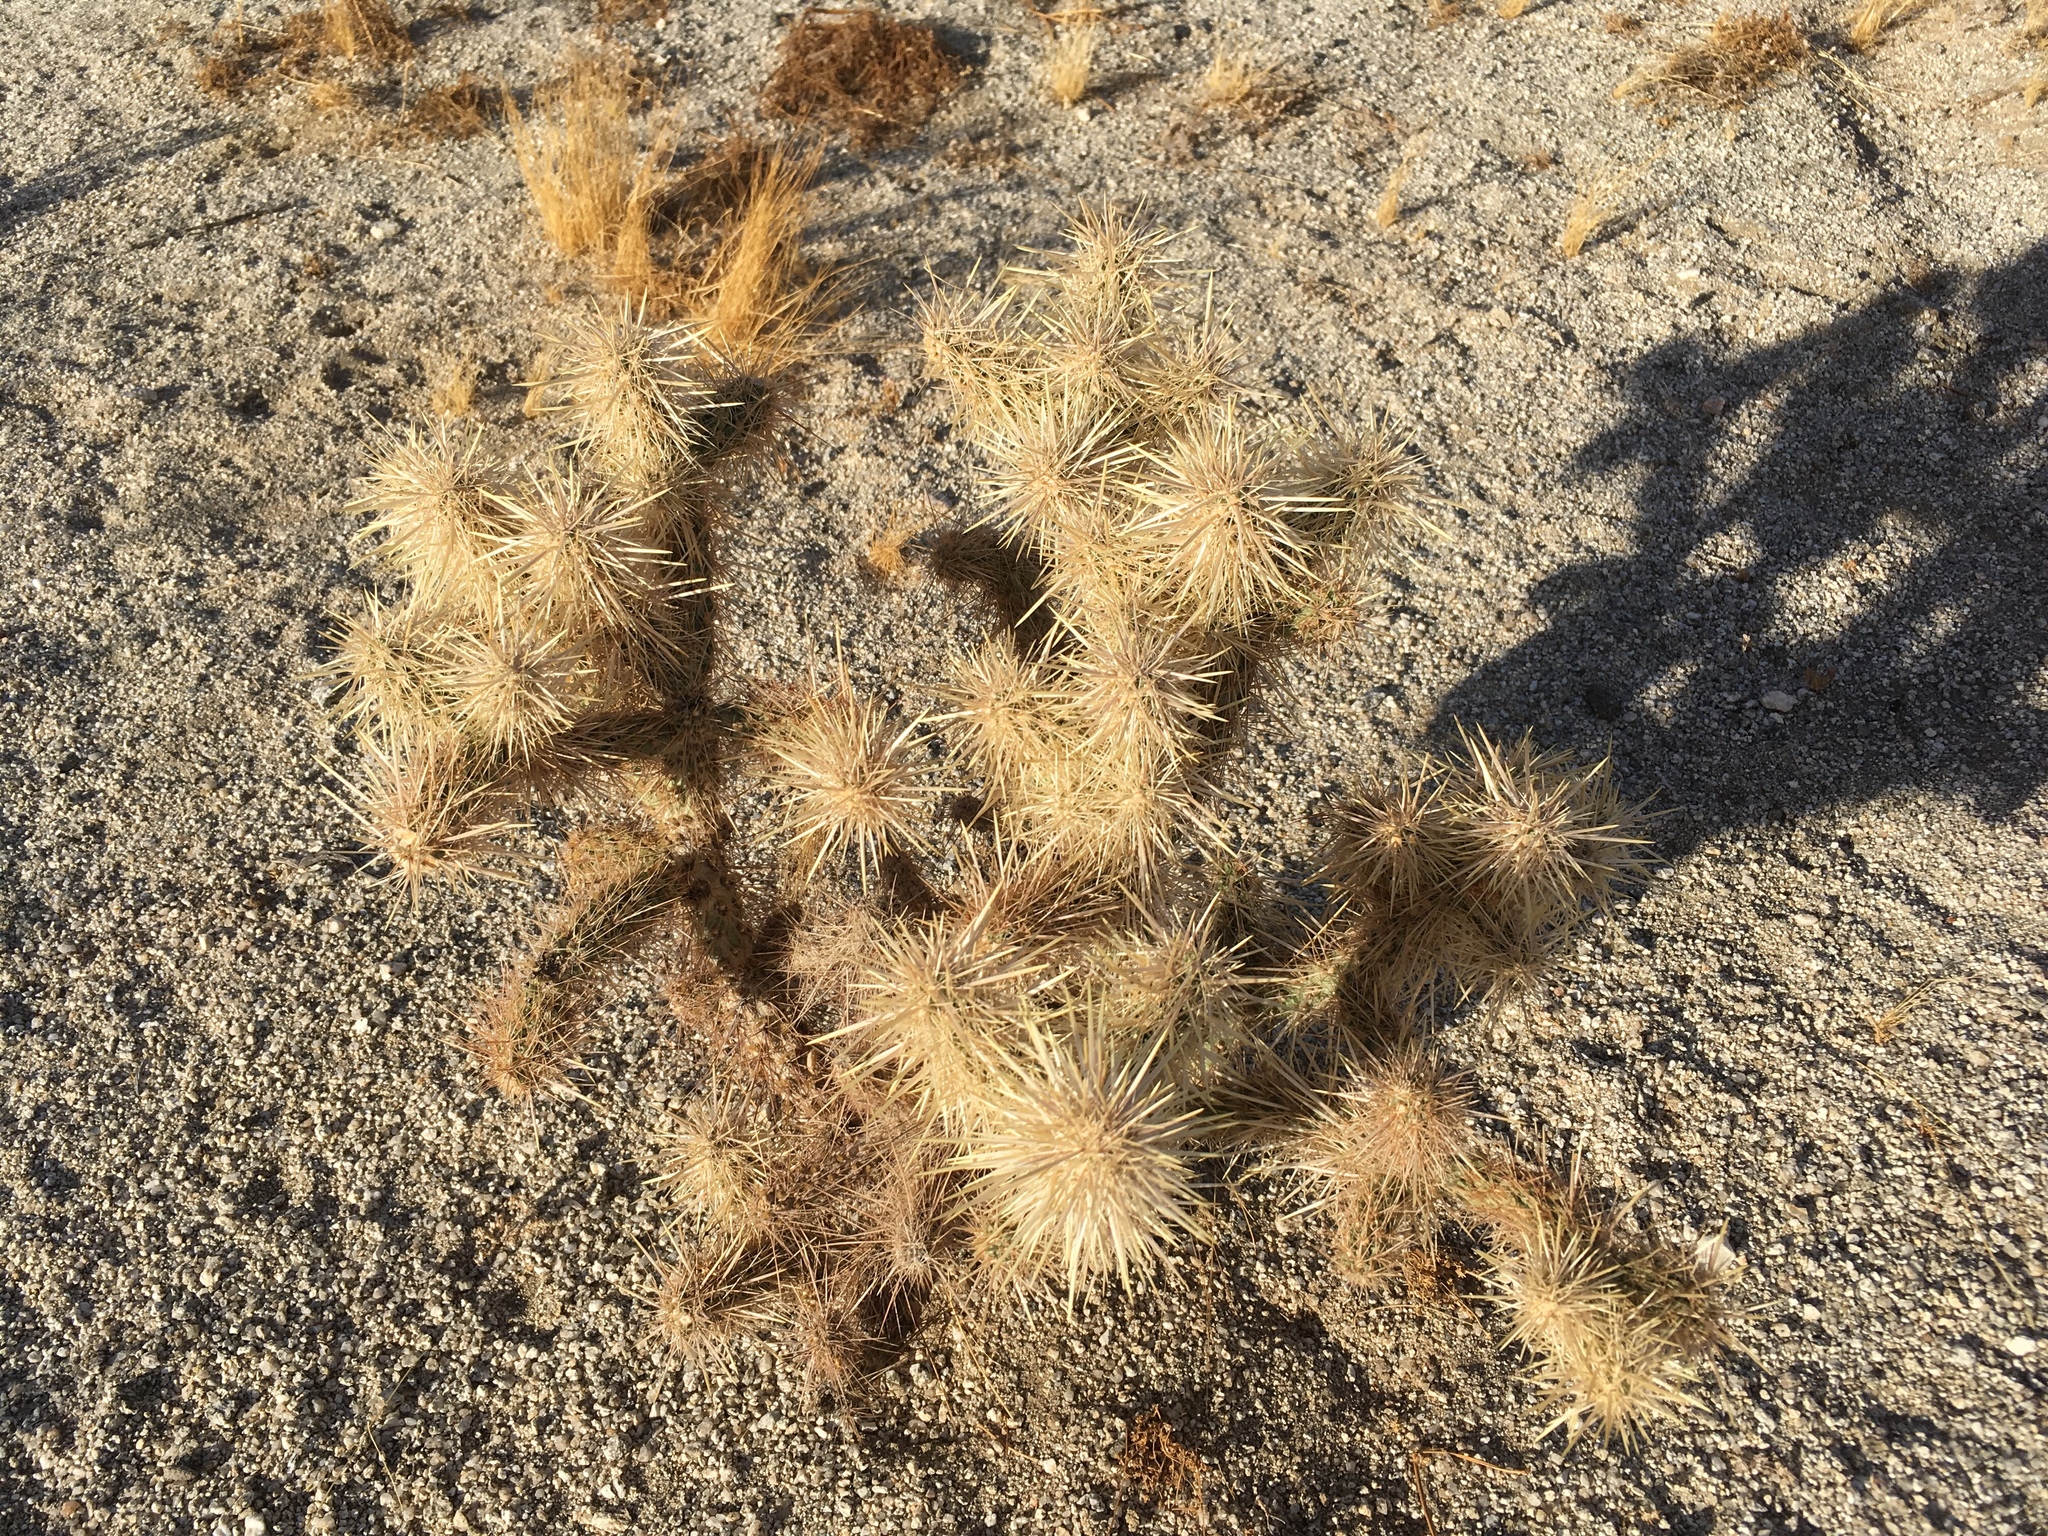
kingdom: Plantae
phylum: Tracheophyta
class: Magnoliopsida
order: Caryophyllales
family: Cactaceae
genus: Cylindropuntia
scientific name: Cylindropuntia echinocarpa
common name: Ground cholla
